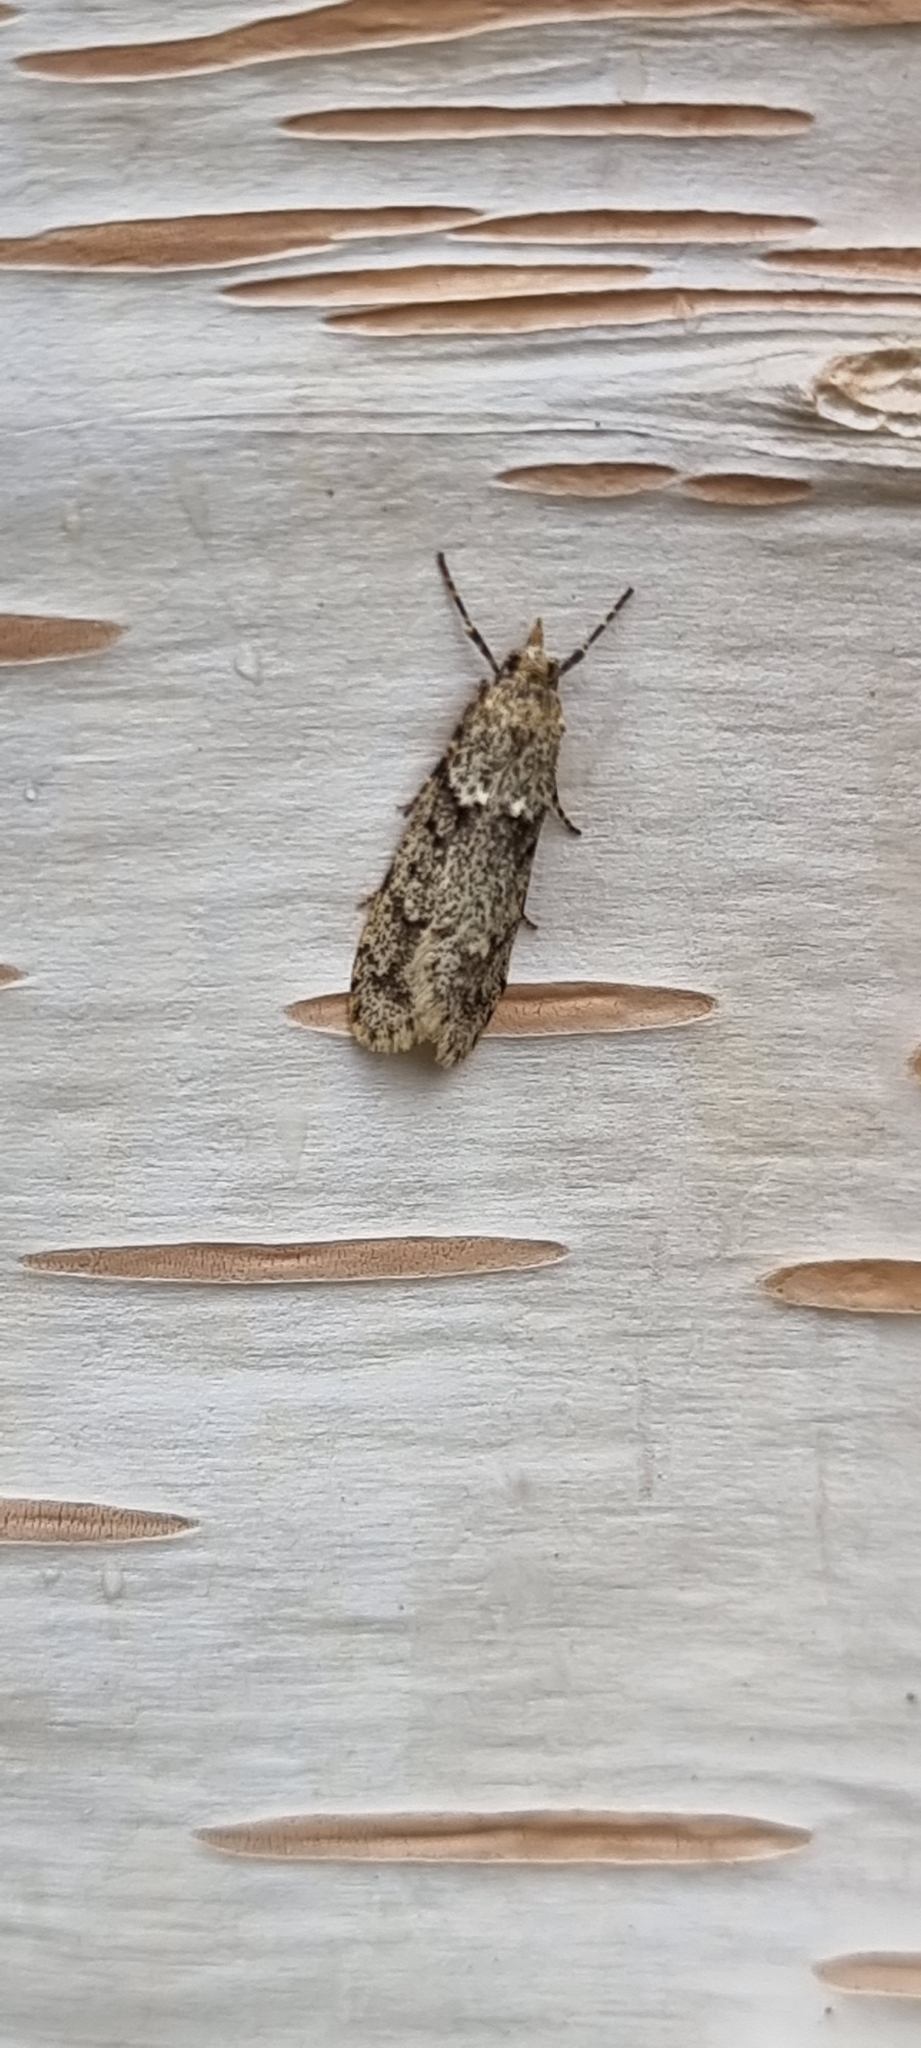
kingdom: Animalia
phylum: Arthropoda
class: Insecta
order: Lepidoptera
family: Lypusidae
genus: Diurnea
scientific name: Diurnea fagella
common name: March tubic
